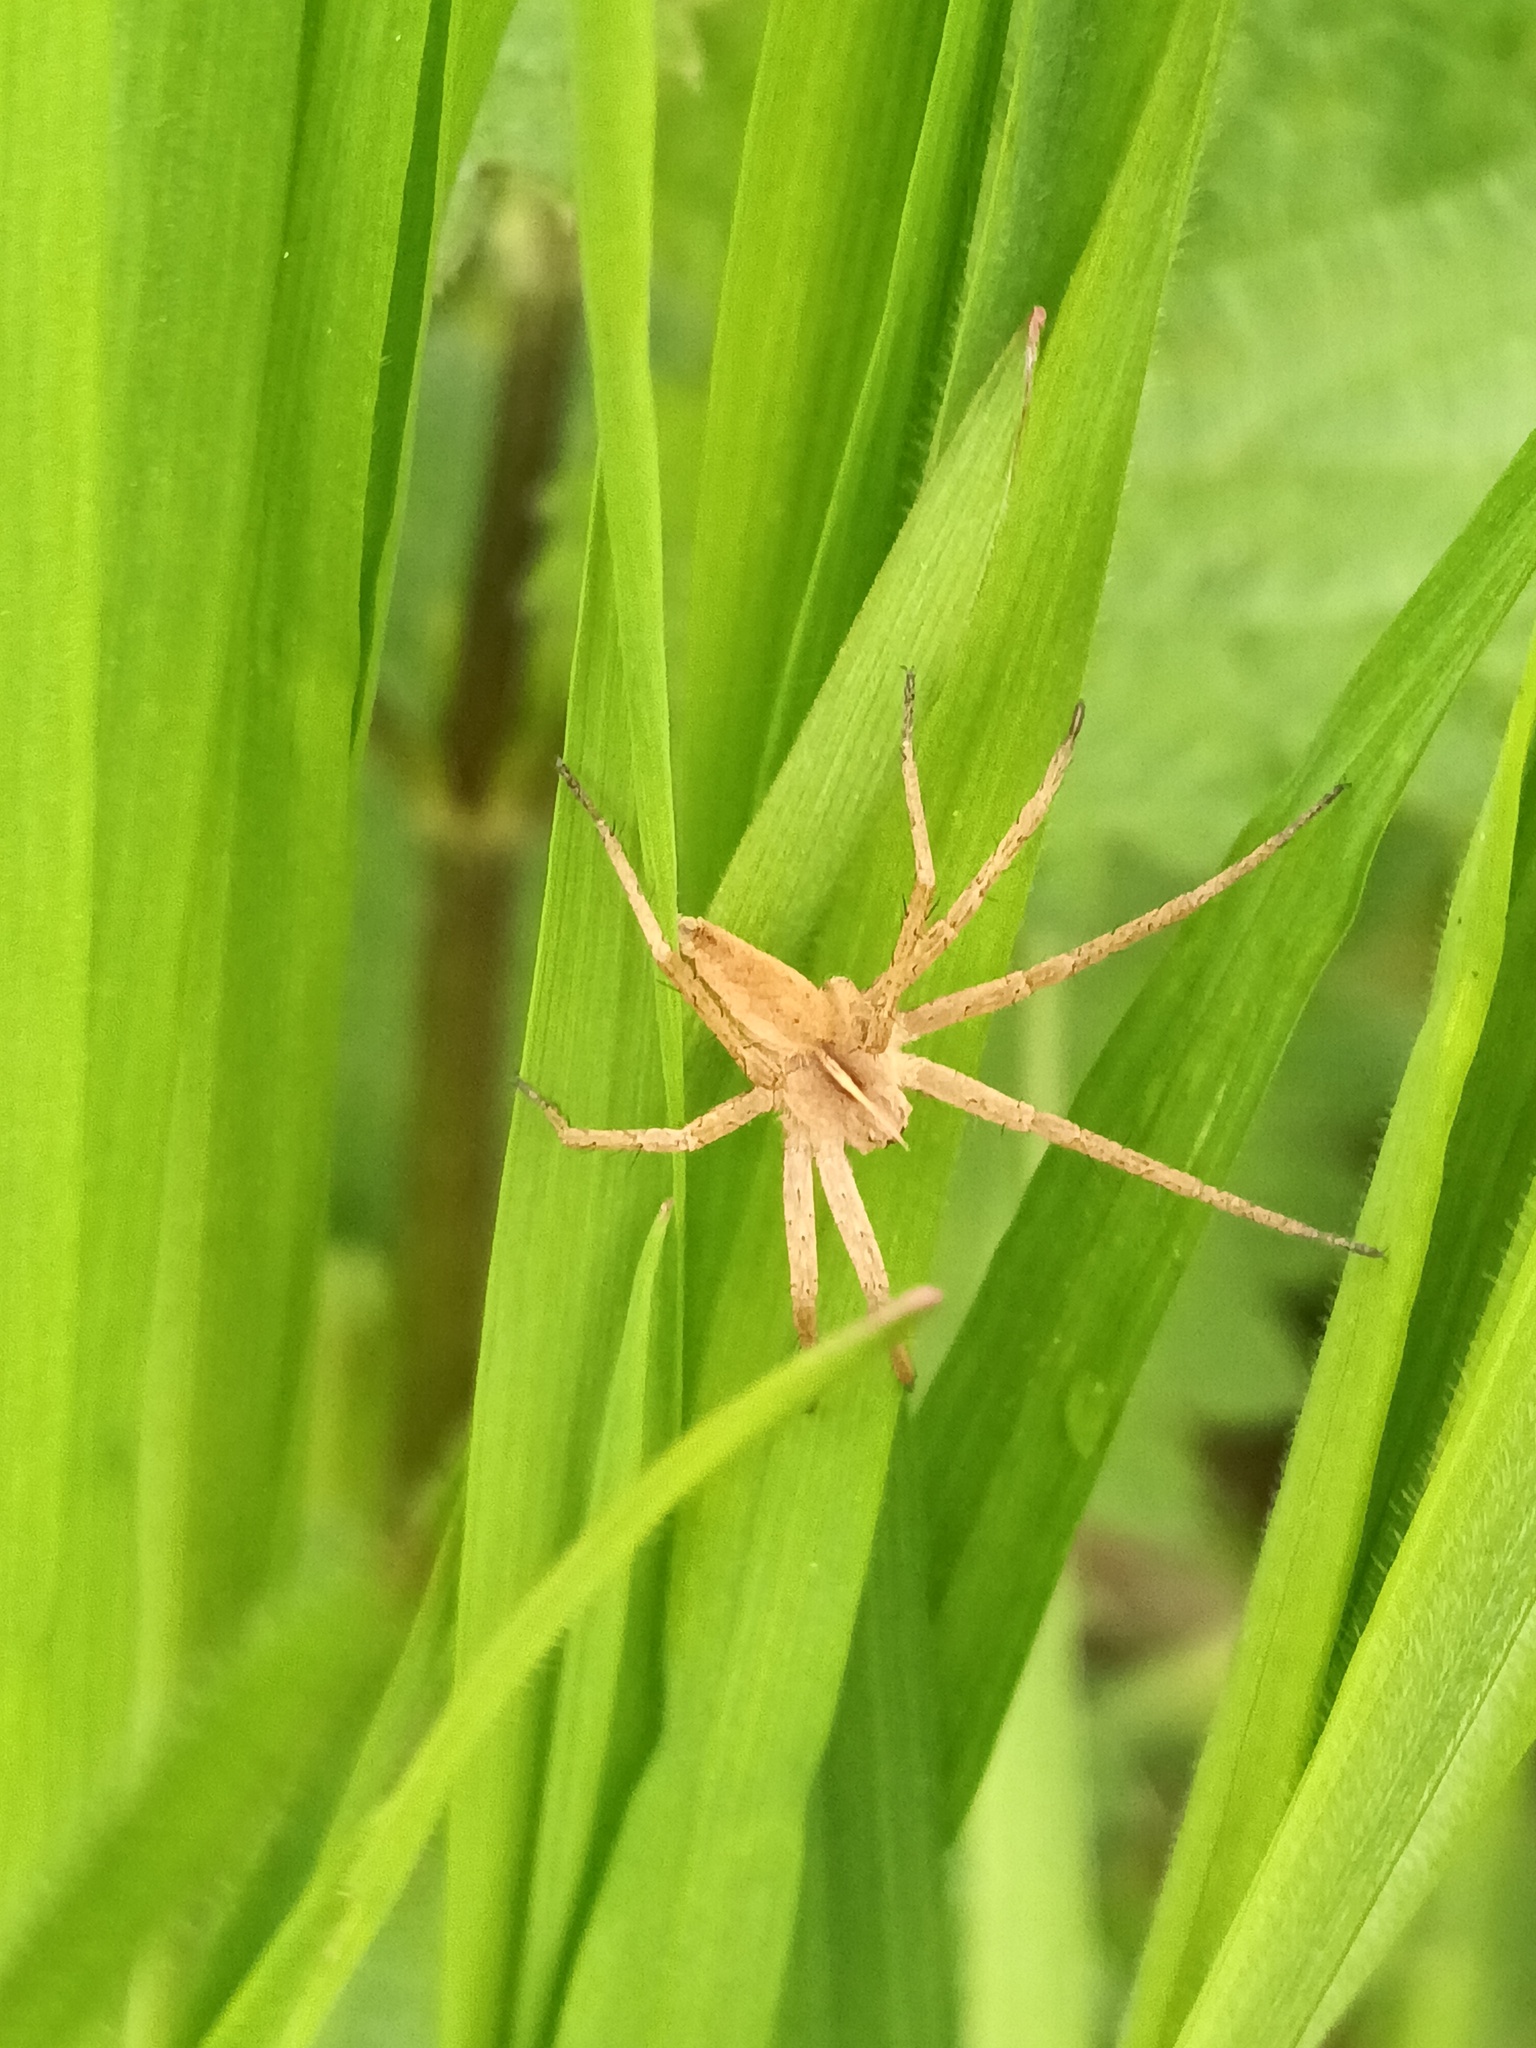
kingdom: Animalia
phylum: Arthropoda
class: Arachnida
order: Araneae
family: Pisauridae
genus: Pisaura
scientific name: Pisaura mirabilis
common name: Tent spider
